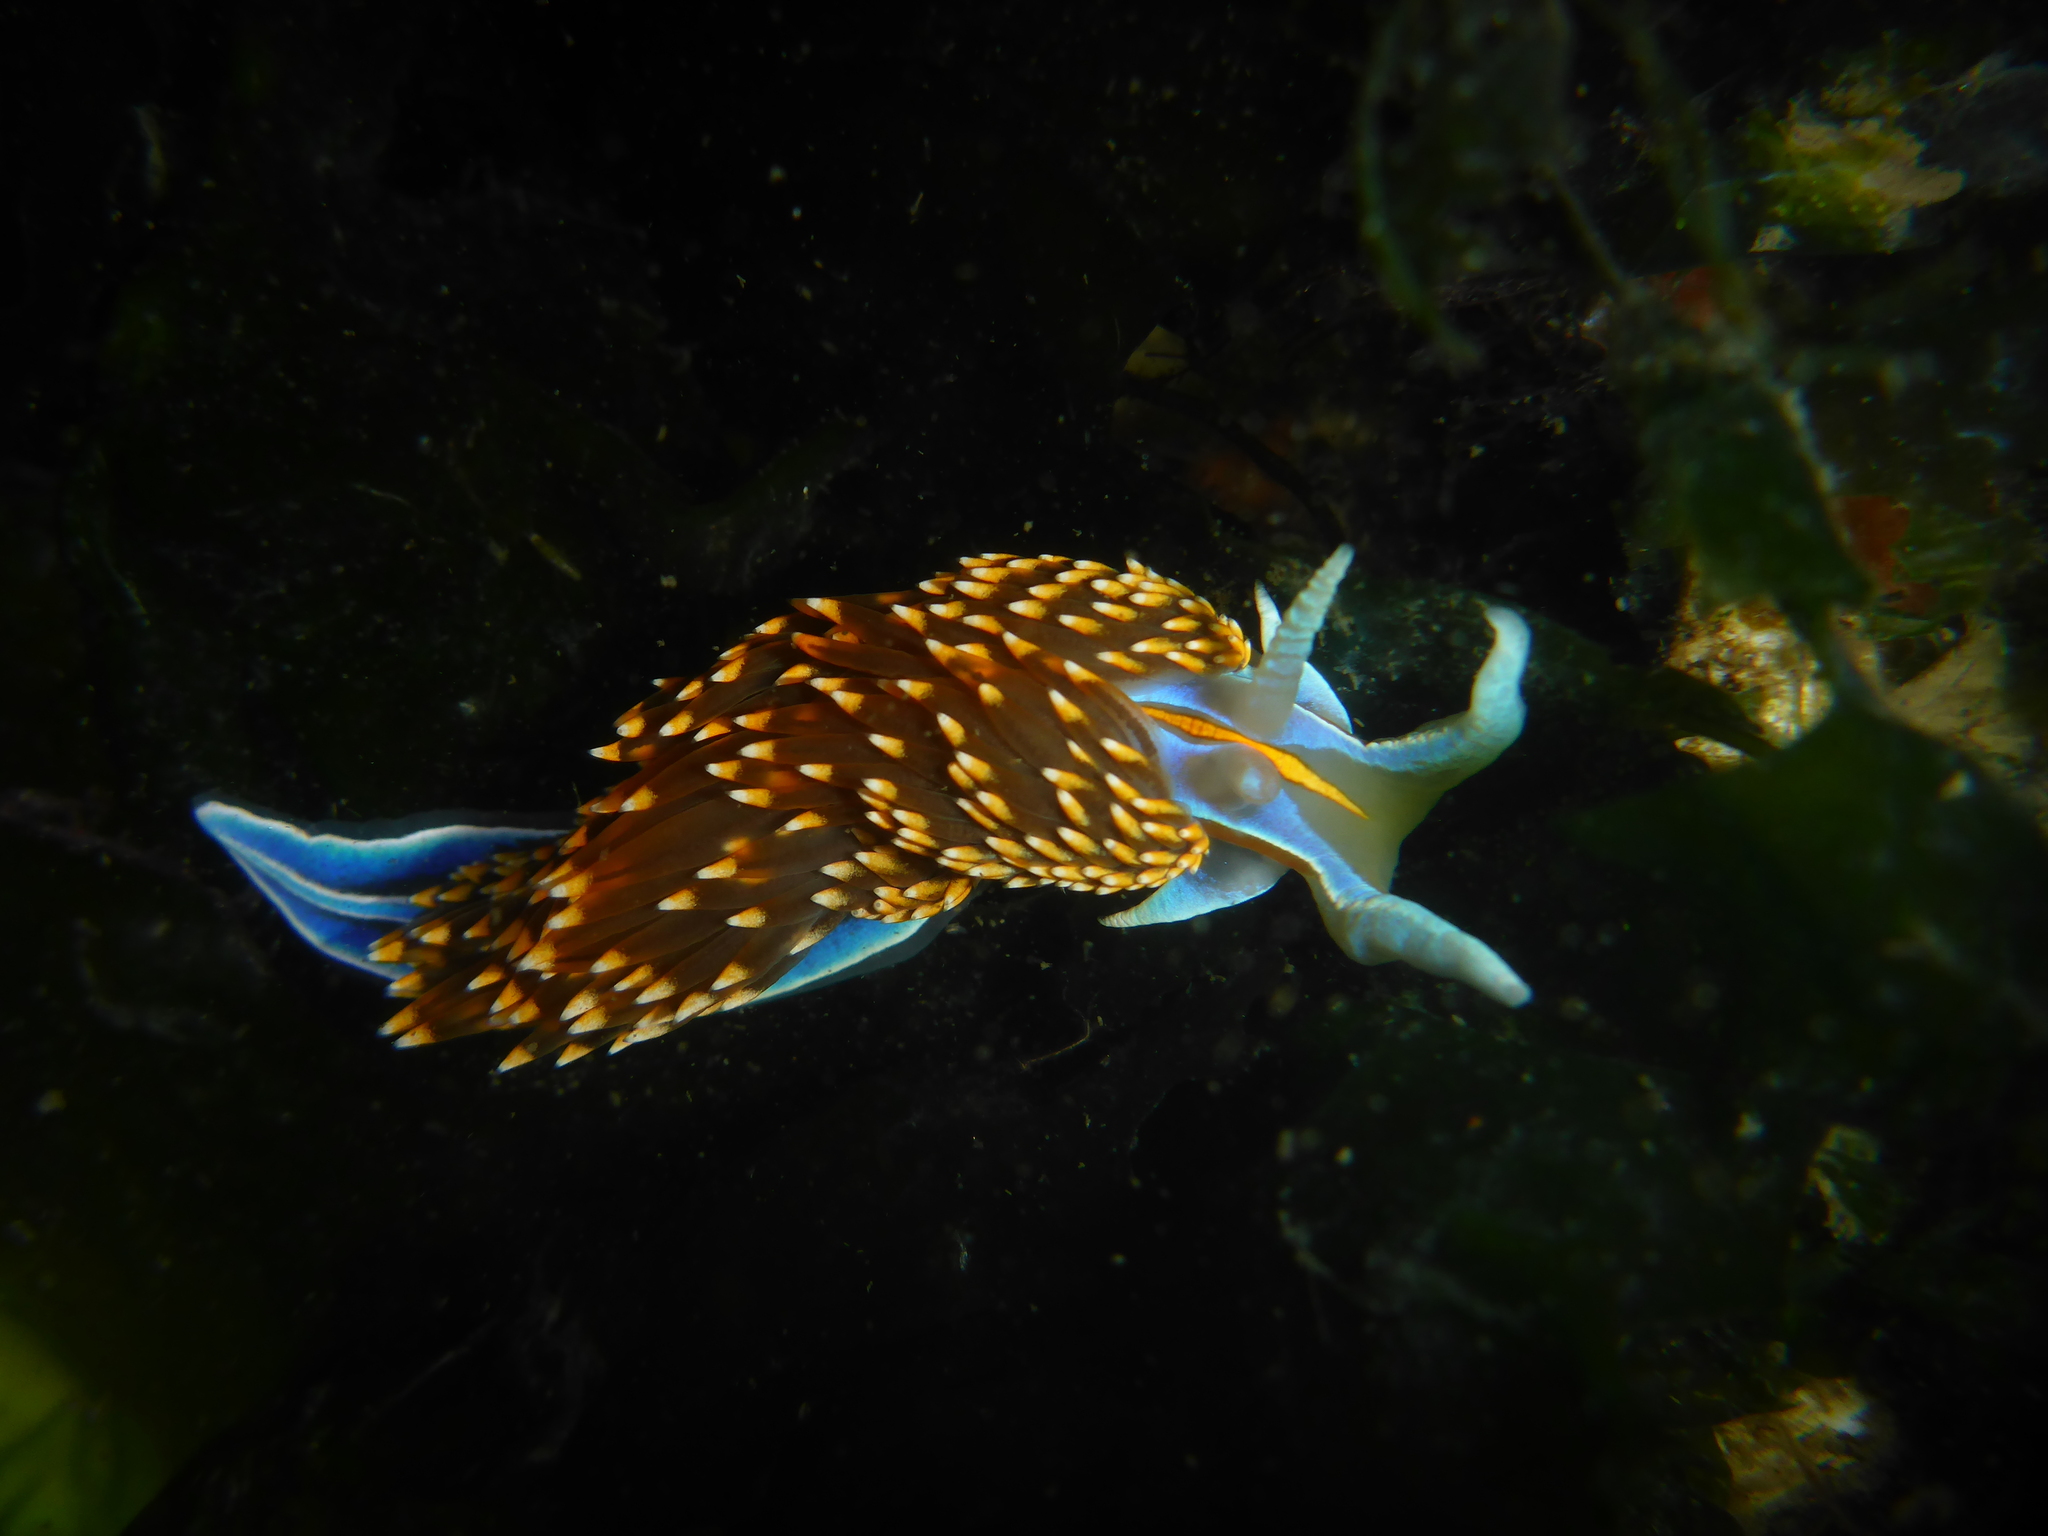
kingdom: Animalia
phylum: Mollusca
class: Gastropoda
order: Nudibranchia
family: Myrrhinidae
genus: Hermissenda
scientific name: Hermissenda opalescens
